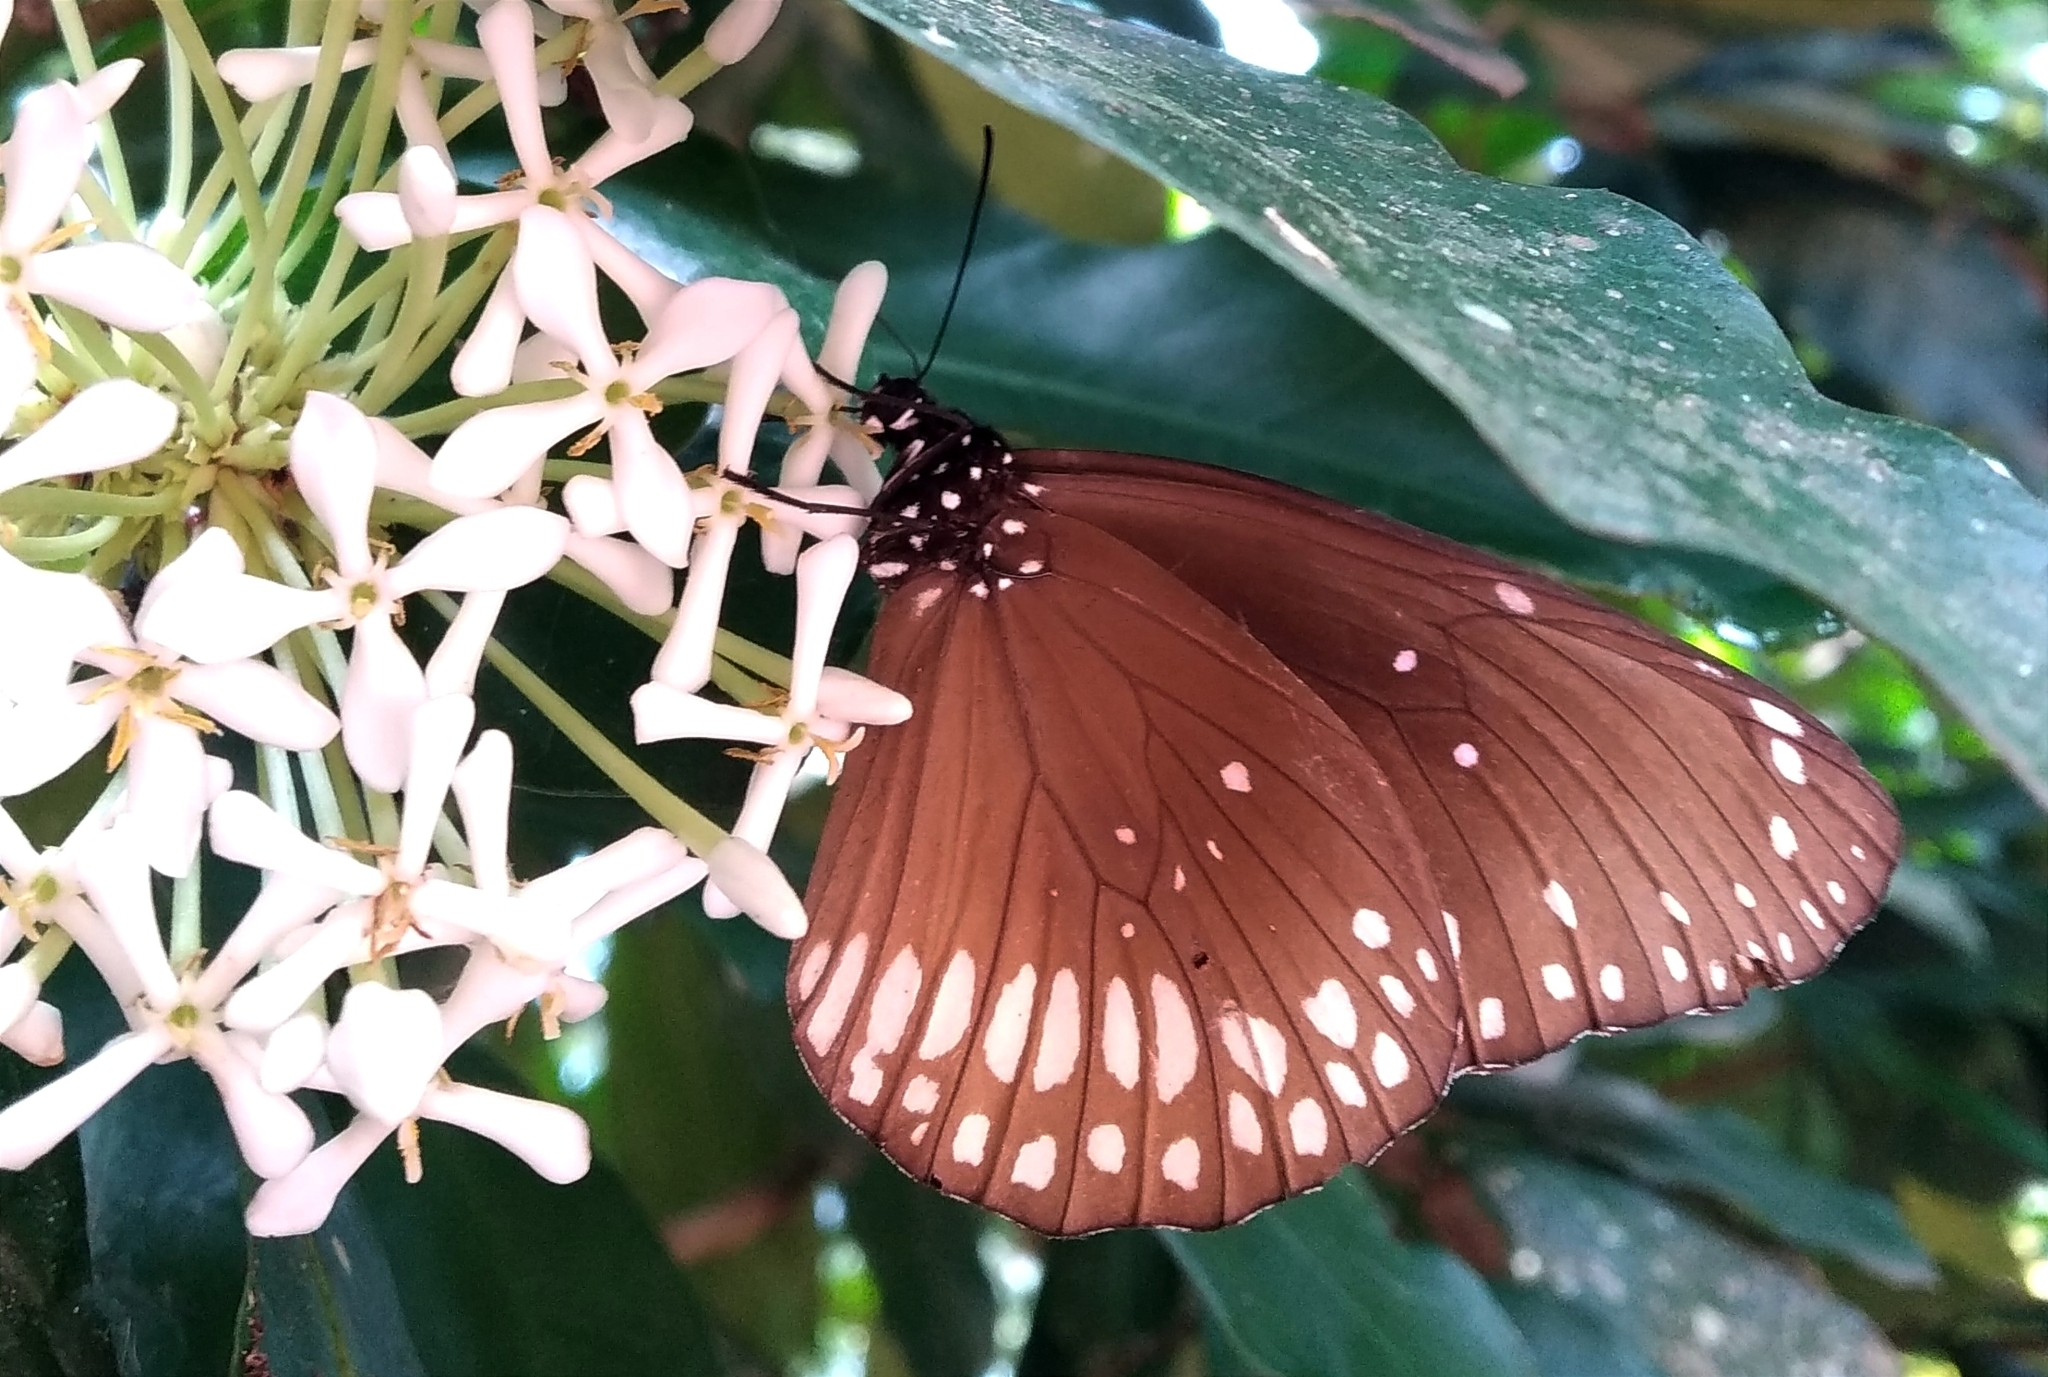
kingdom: Animalia
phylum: Arthropoda
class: Insecta
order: Lepidoptera
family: Nymphalidae
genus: Euploea
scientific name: Euploea core
